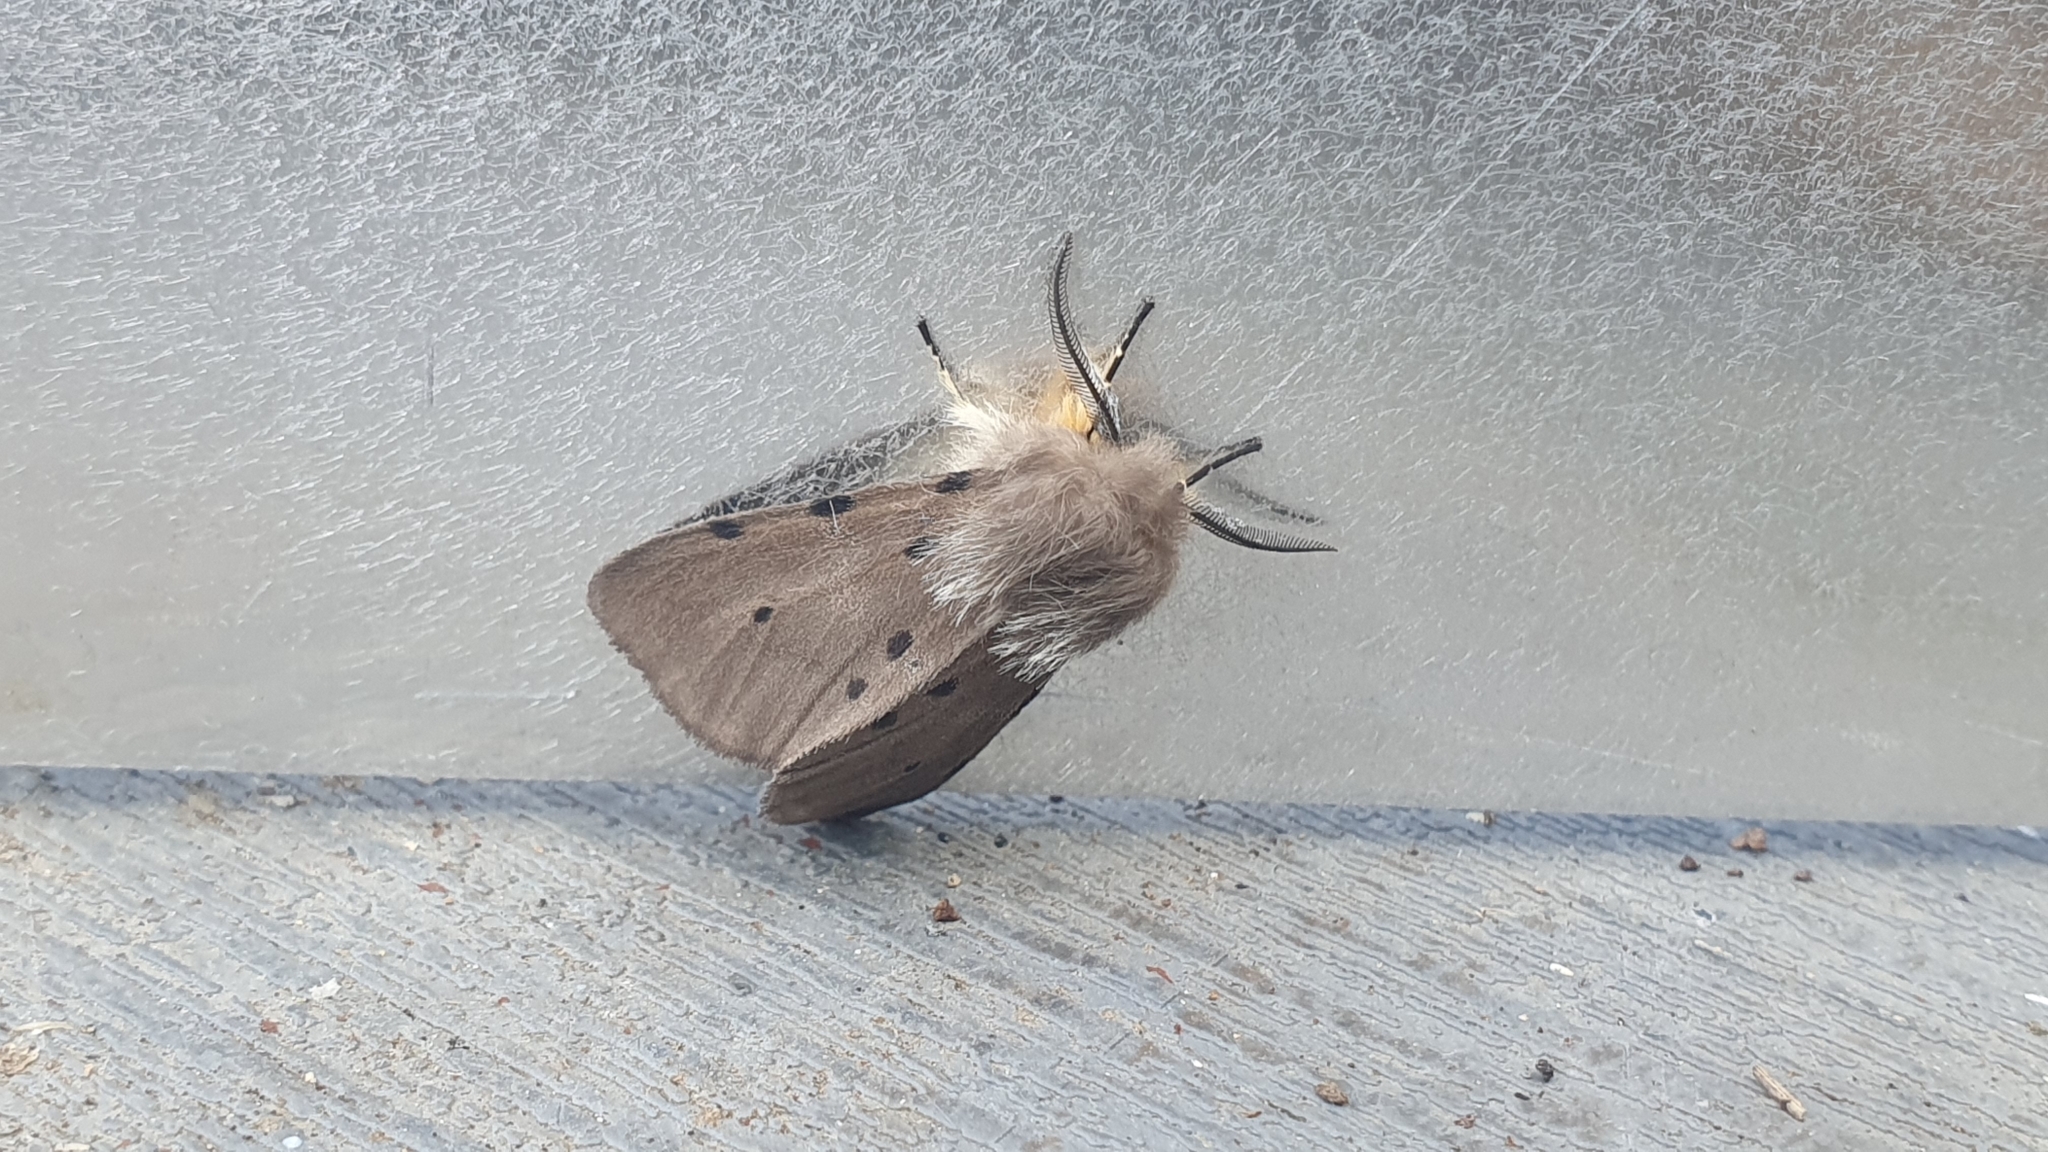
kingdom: Animalia
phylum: Arthropoda
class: Insecta
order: Lepidoptera
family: Erebidae
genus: Diaphora
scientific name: Diaphora mendica
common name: Muslin moth
